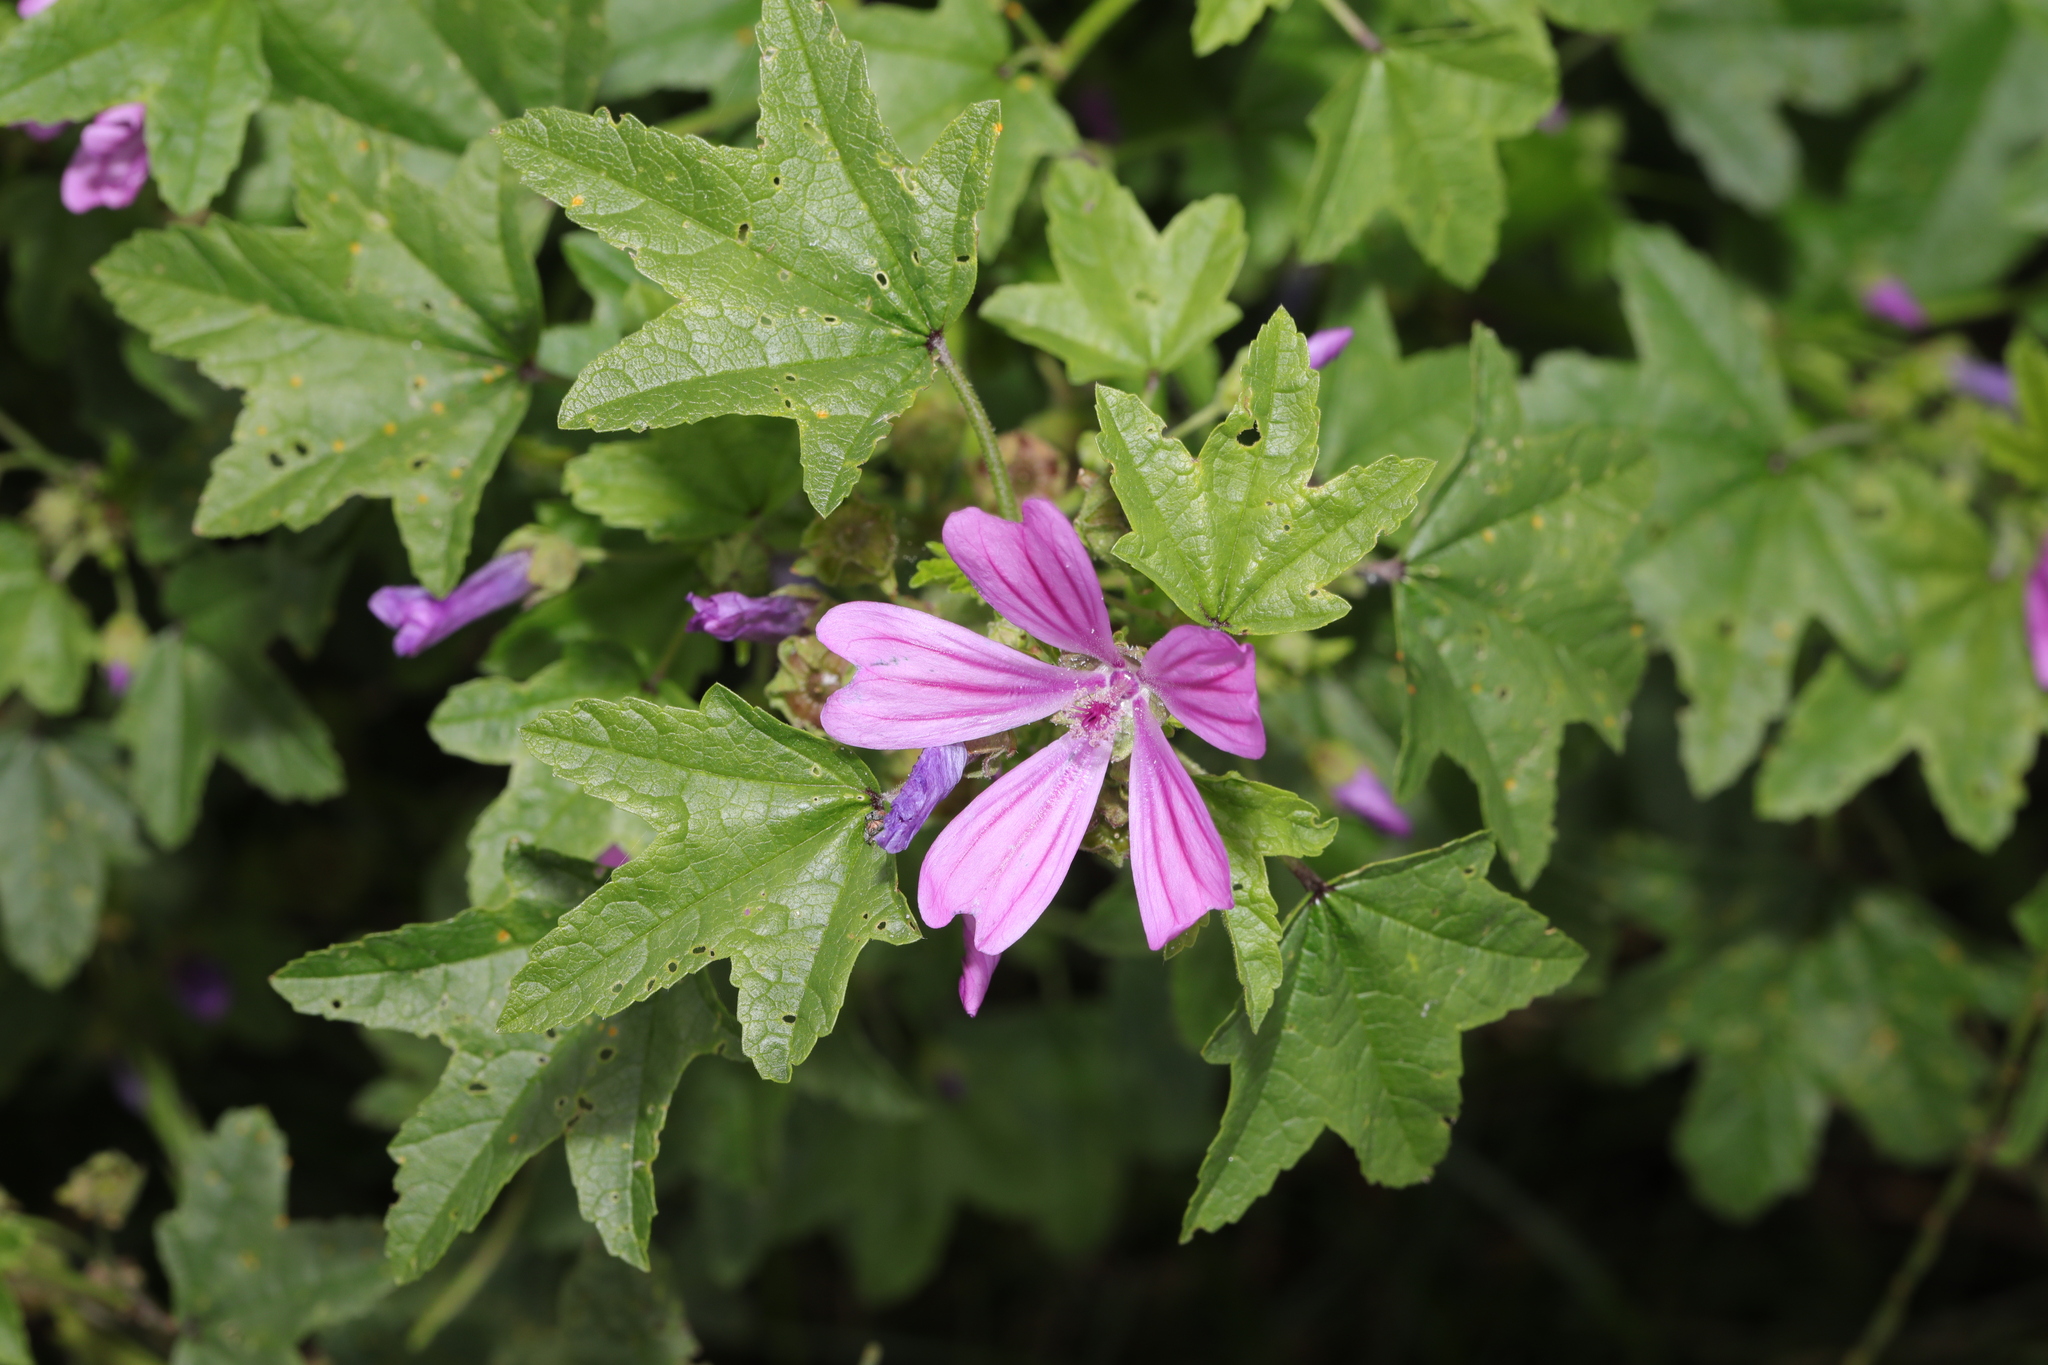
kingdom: Plantae
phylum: Tracheophyta
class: Magnoliopsida
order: Malvales
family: Malvaceae
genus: Malva
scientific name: Malva sylvestris
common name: Common mallow
